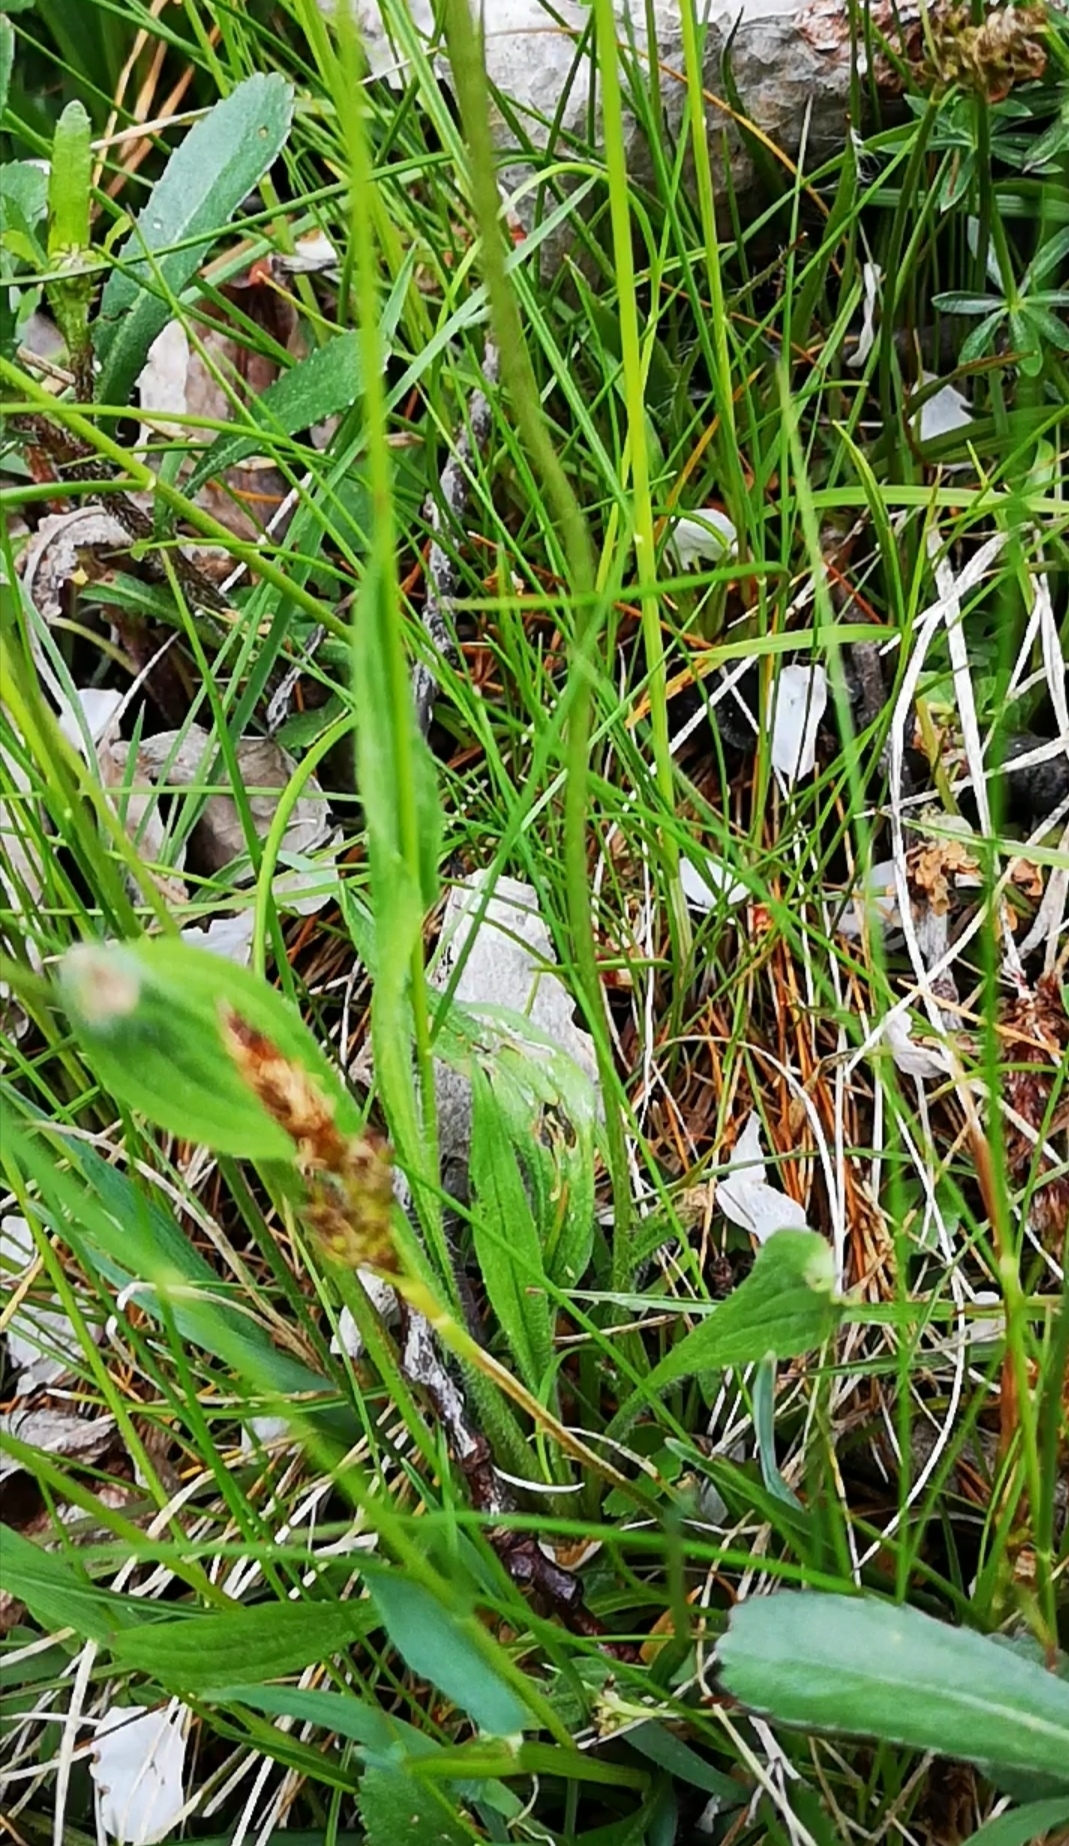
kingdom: Plantae
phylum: Tracheophyta
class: Magnoliopsida
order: Lamiales
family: Plantaginaceae
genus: Plantago
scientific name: Plantago lanceolata
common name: Ribwort plantain
